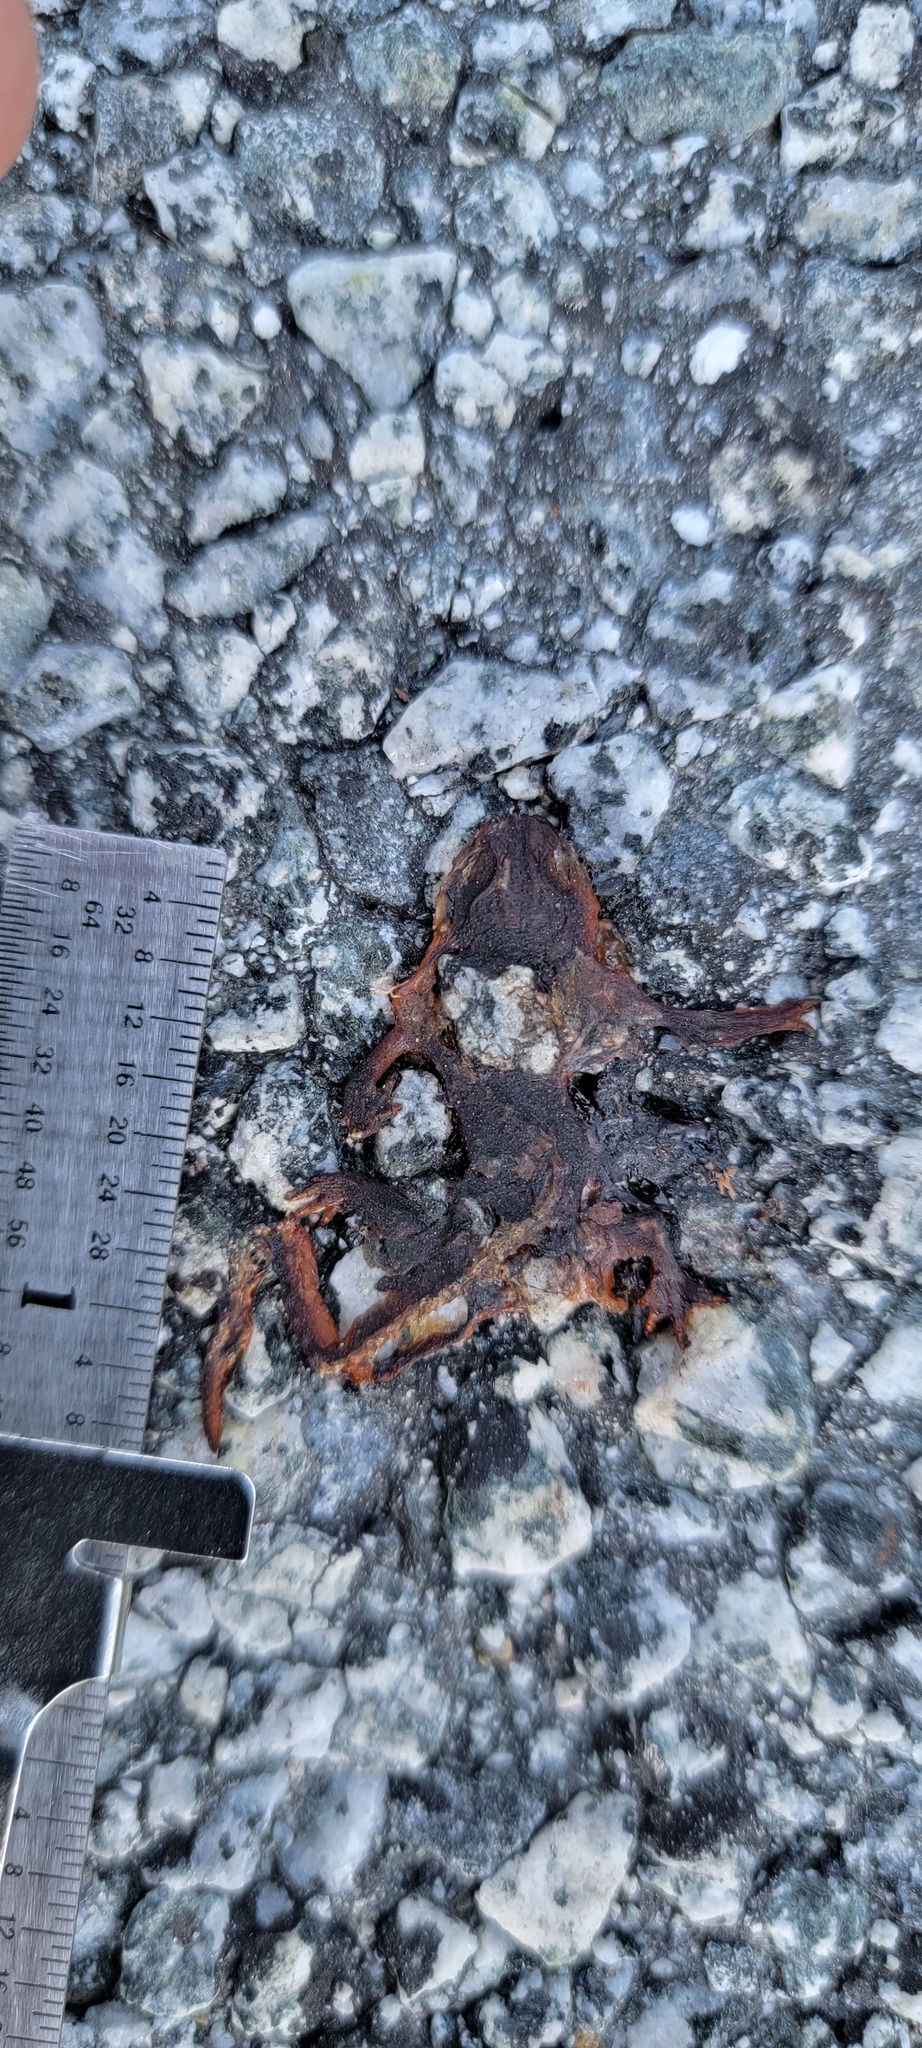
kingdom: Animalia
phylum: Chordata
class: Amphibia
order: Caudata
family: Salamandridae
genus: Taricha
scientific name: Taricha
